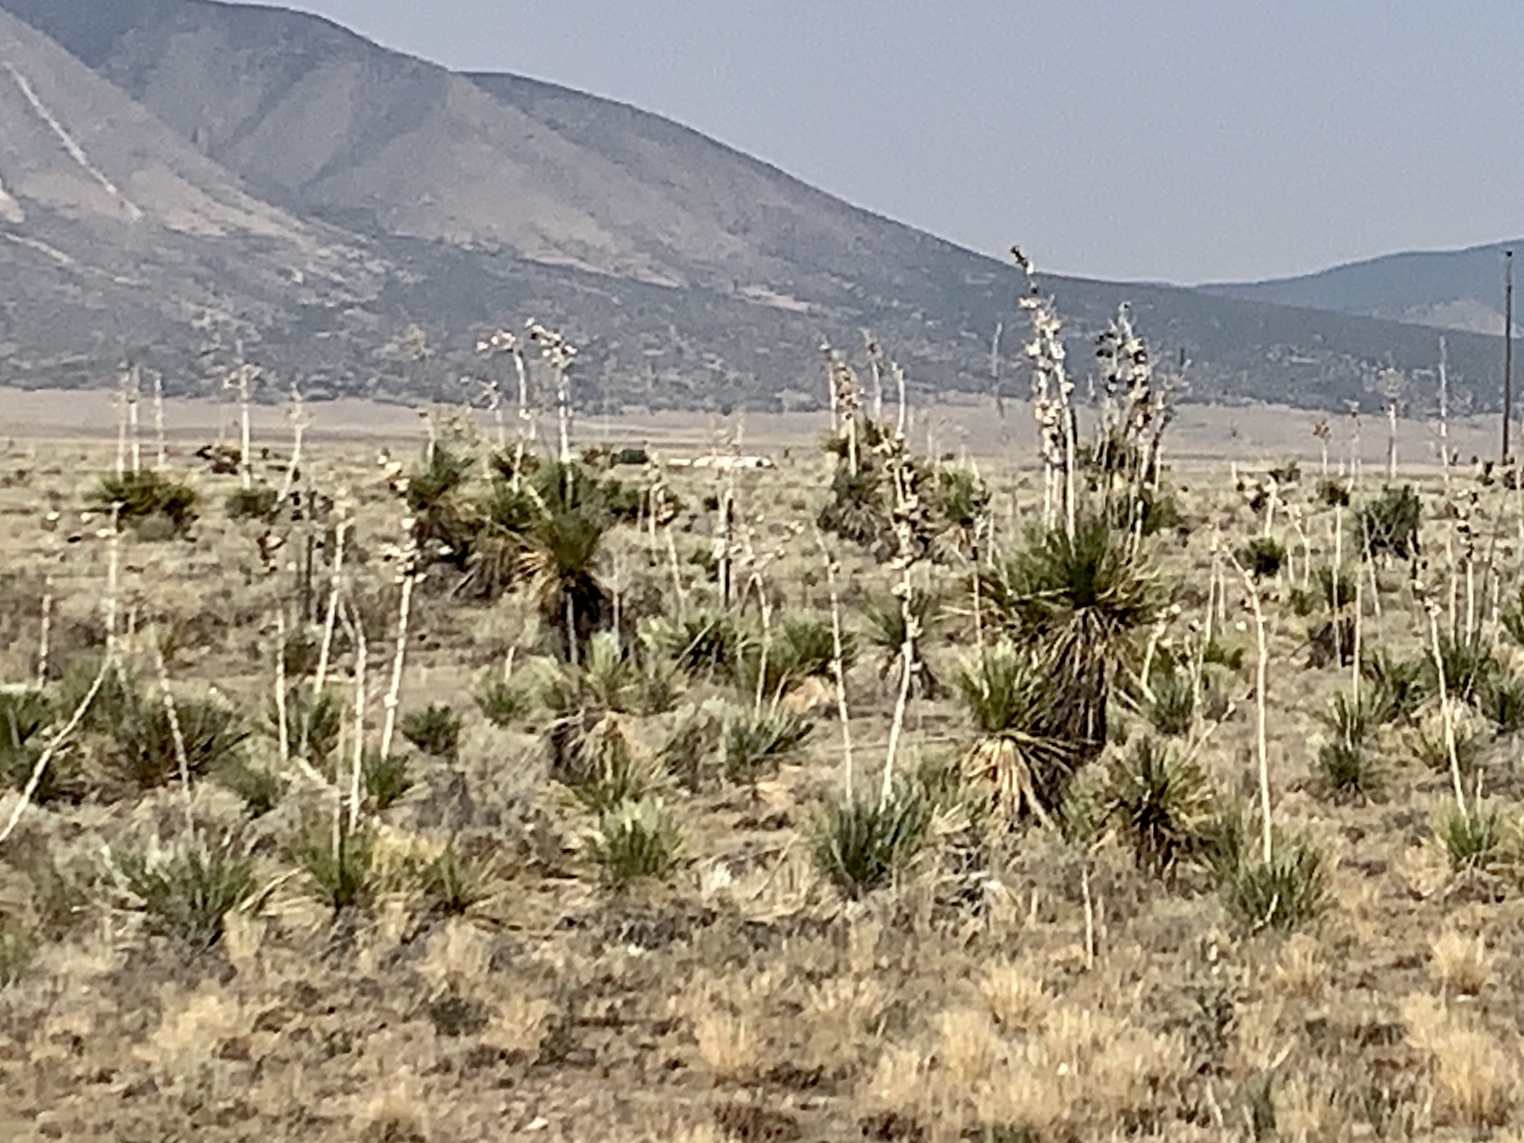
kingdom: Plantae
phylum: Tracheophyta
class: Liliopsida
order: Asparagales
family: Asparagaceae
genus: Yucca
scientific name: Yucca elata
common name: Palmella
